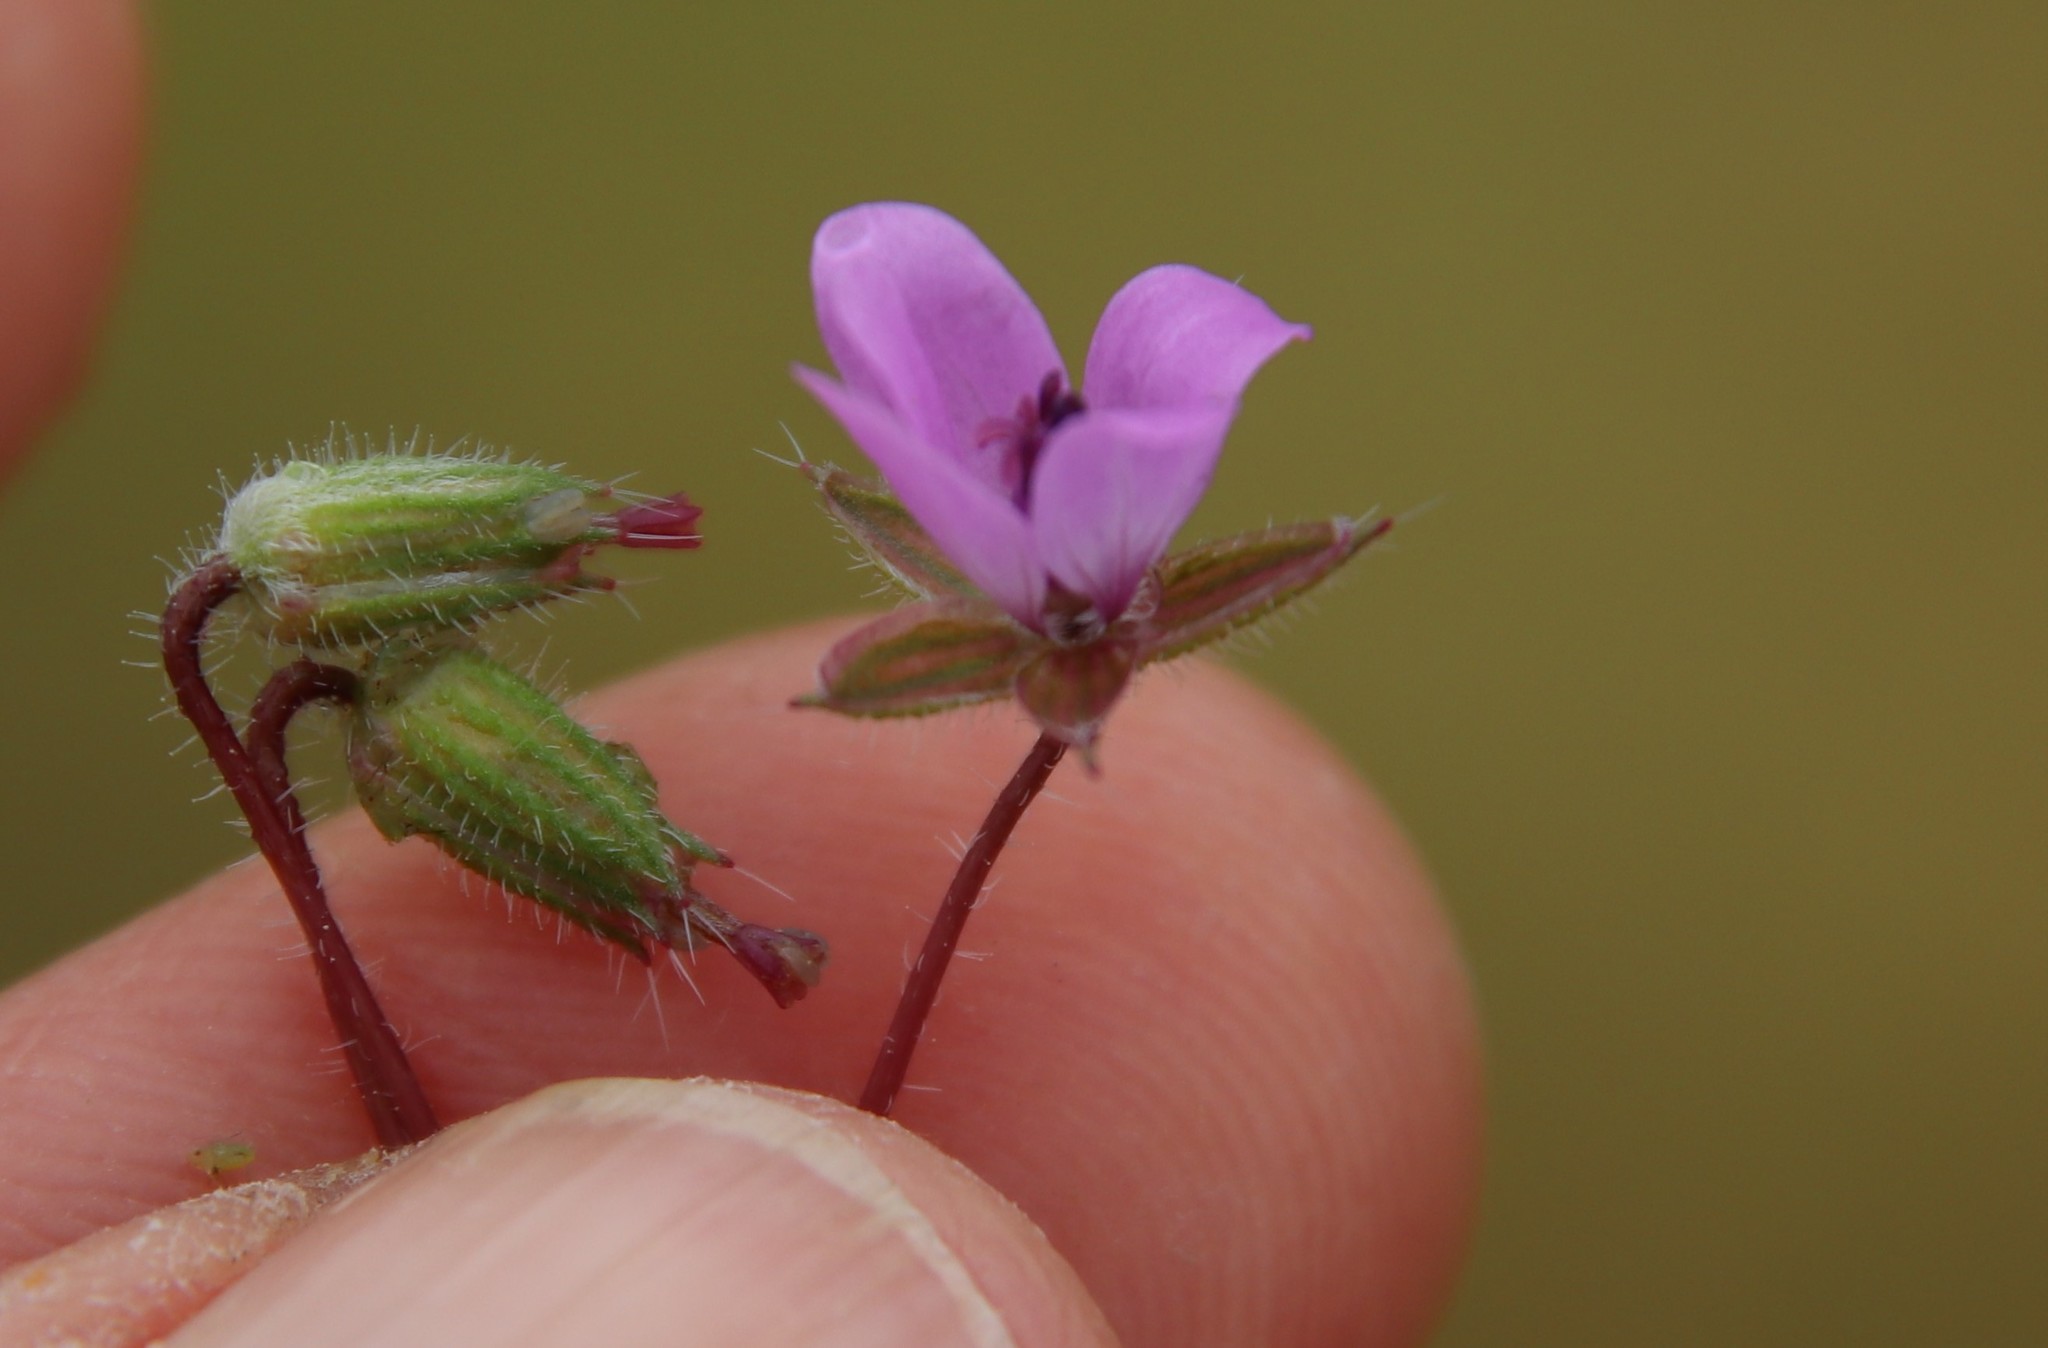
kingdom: Plantae
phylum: Tracheophyta
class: Magnoliopsida
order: Geraniales
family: Geraniaceae
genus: Erodium
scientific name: Erodium cicutarium
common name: Common stork's-bill
